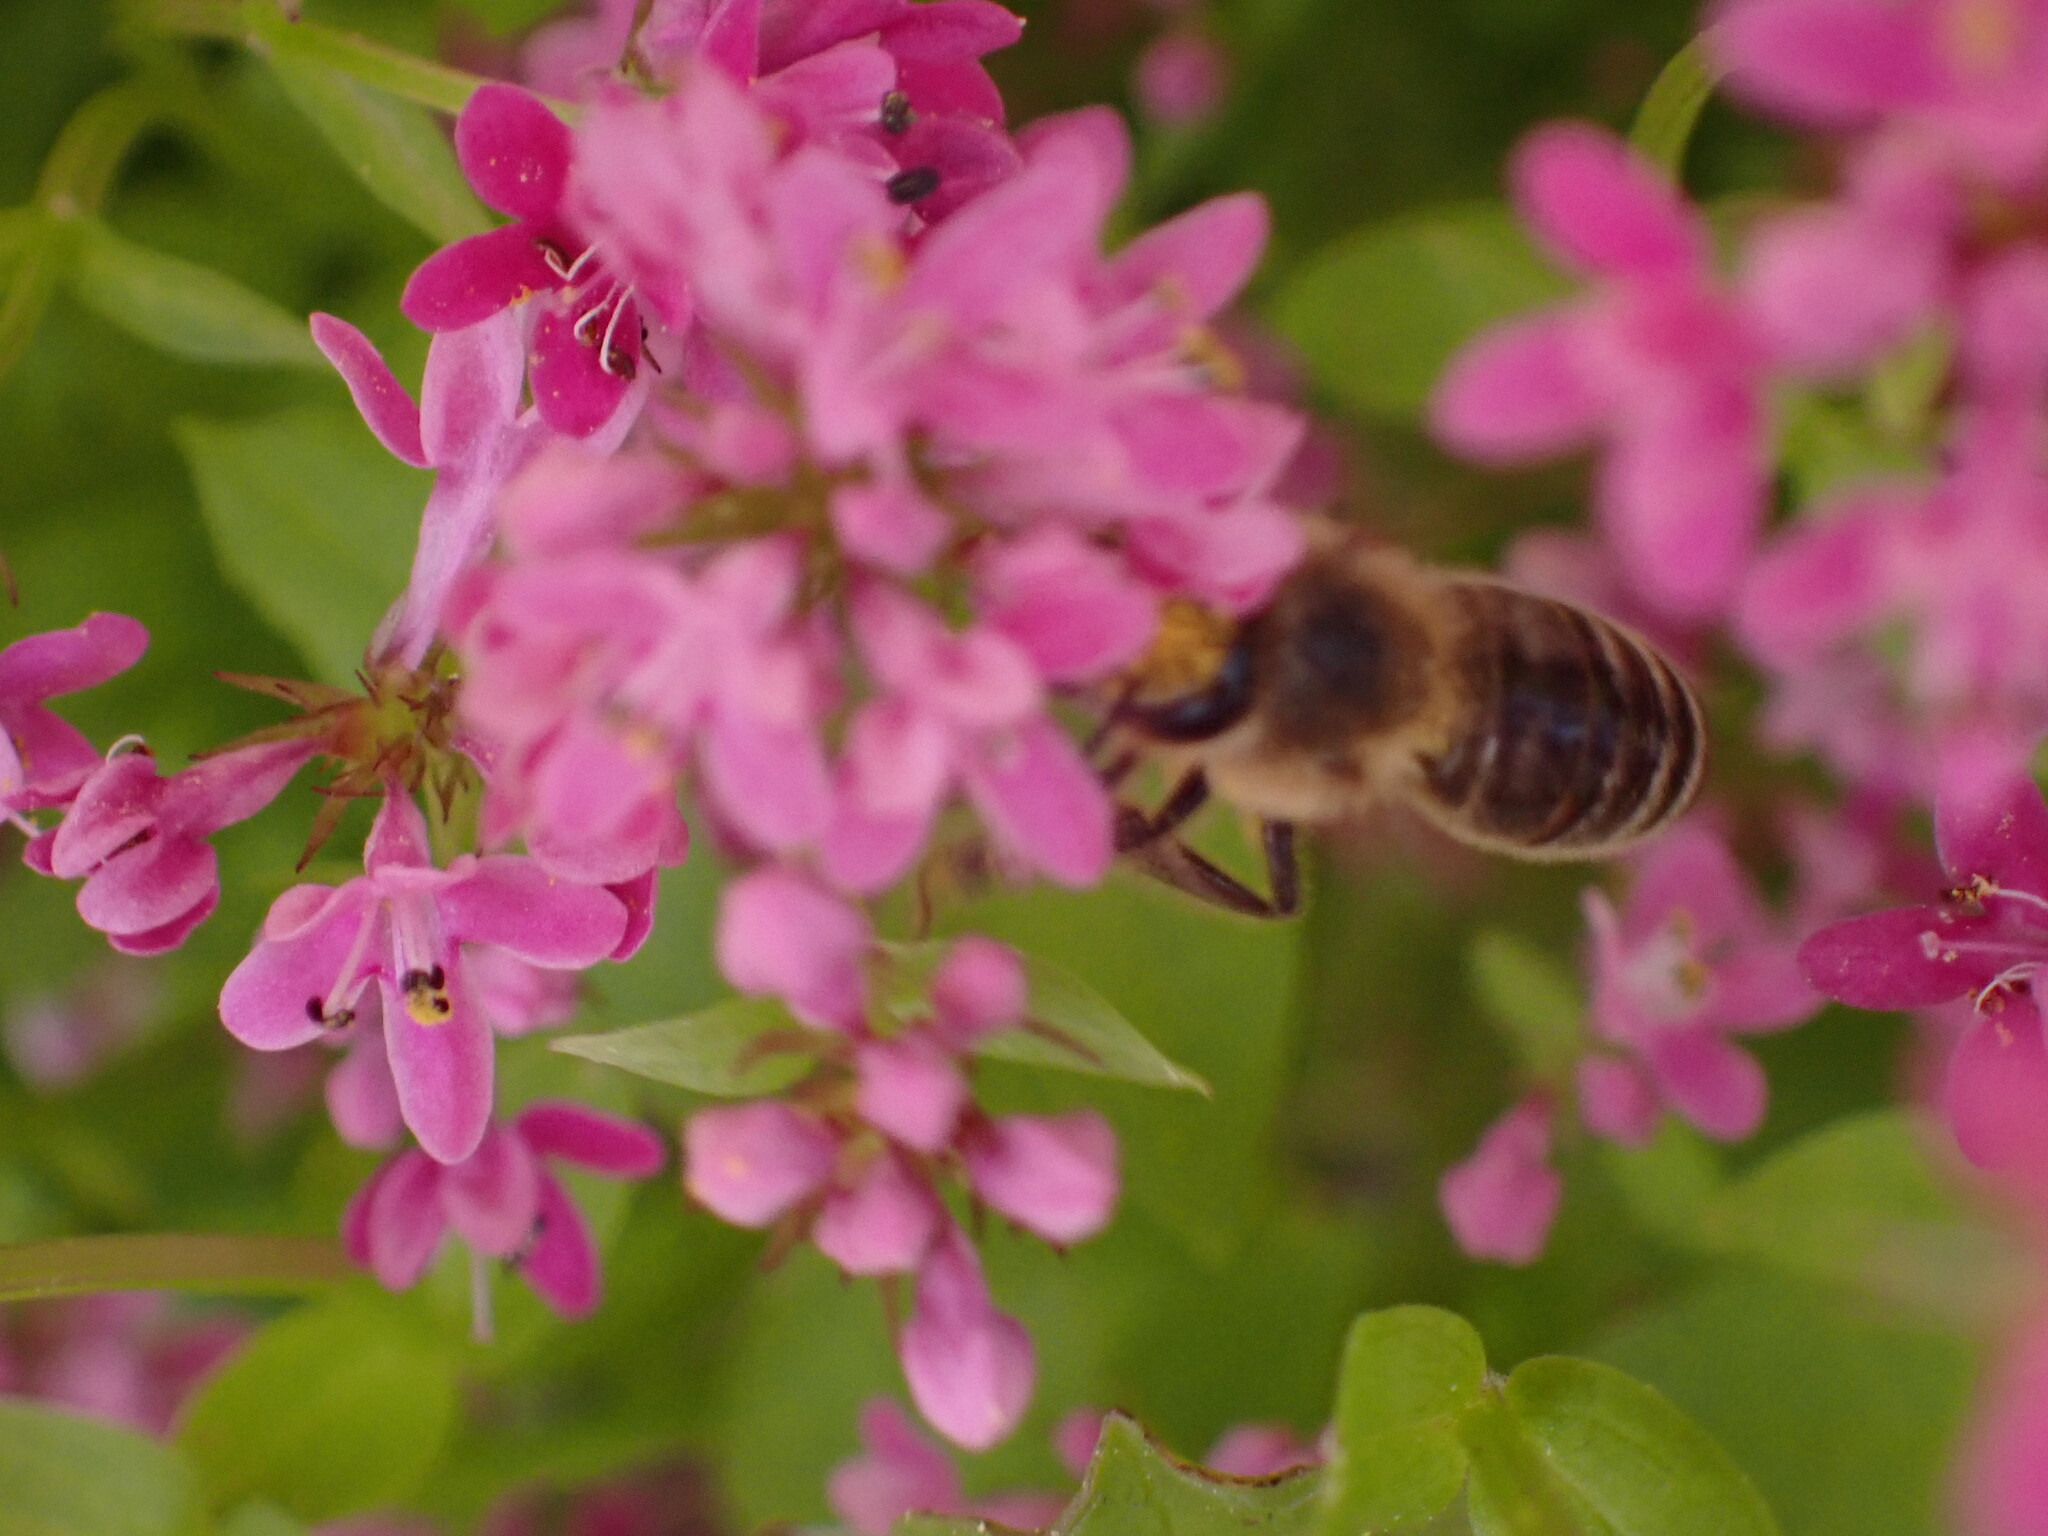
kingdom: Animalia
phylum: Arthropoda
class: Insecta
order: Hymenoptera
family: Apidae
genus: Apis
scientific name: Apis mellifera
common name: Honey bee
